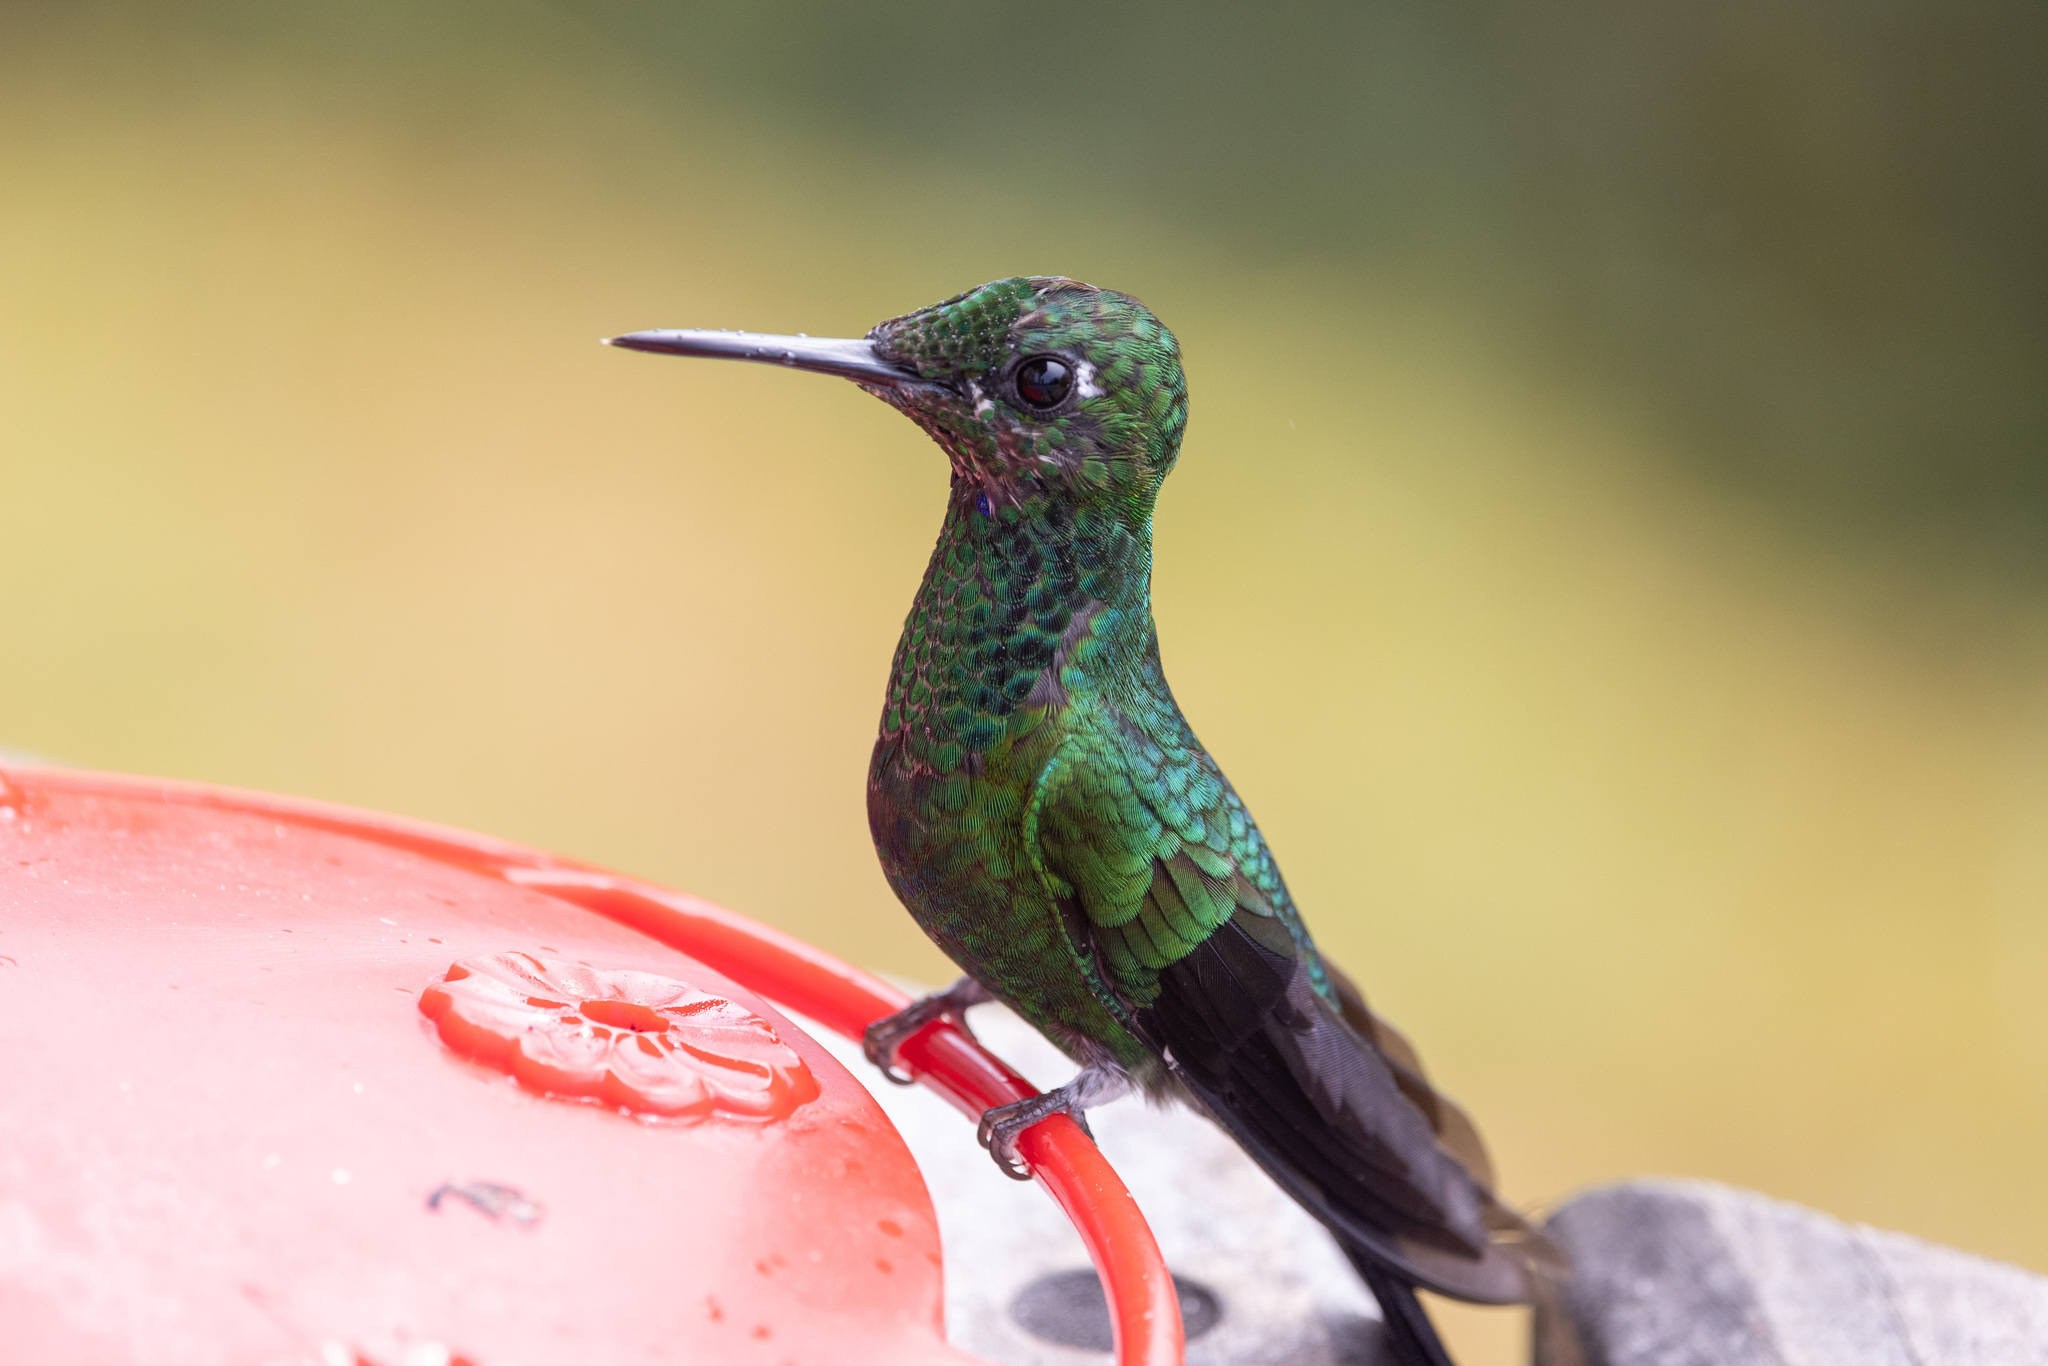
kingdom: Animalia
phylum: Chordata
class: Aves
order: Apodiformes
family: Trochilidae
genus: Heliodoxa
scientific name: Heliodoxa jacula
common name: Green-crowned brilliant
